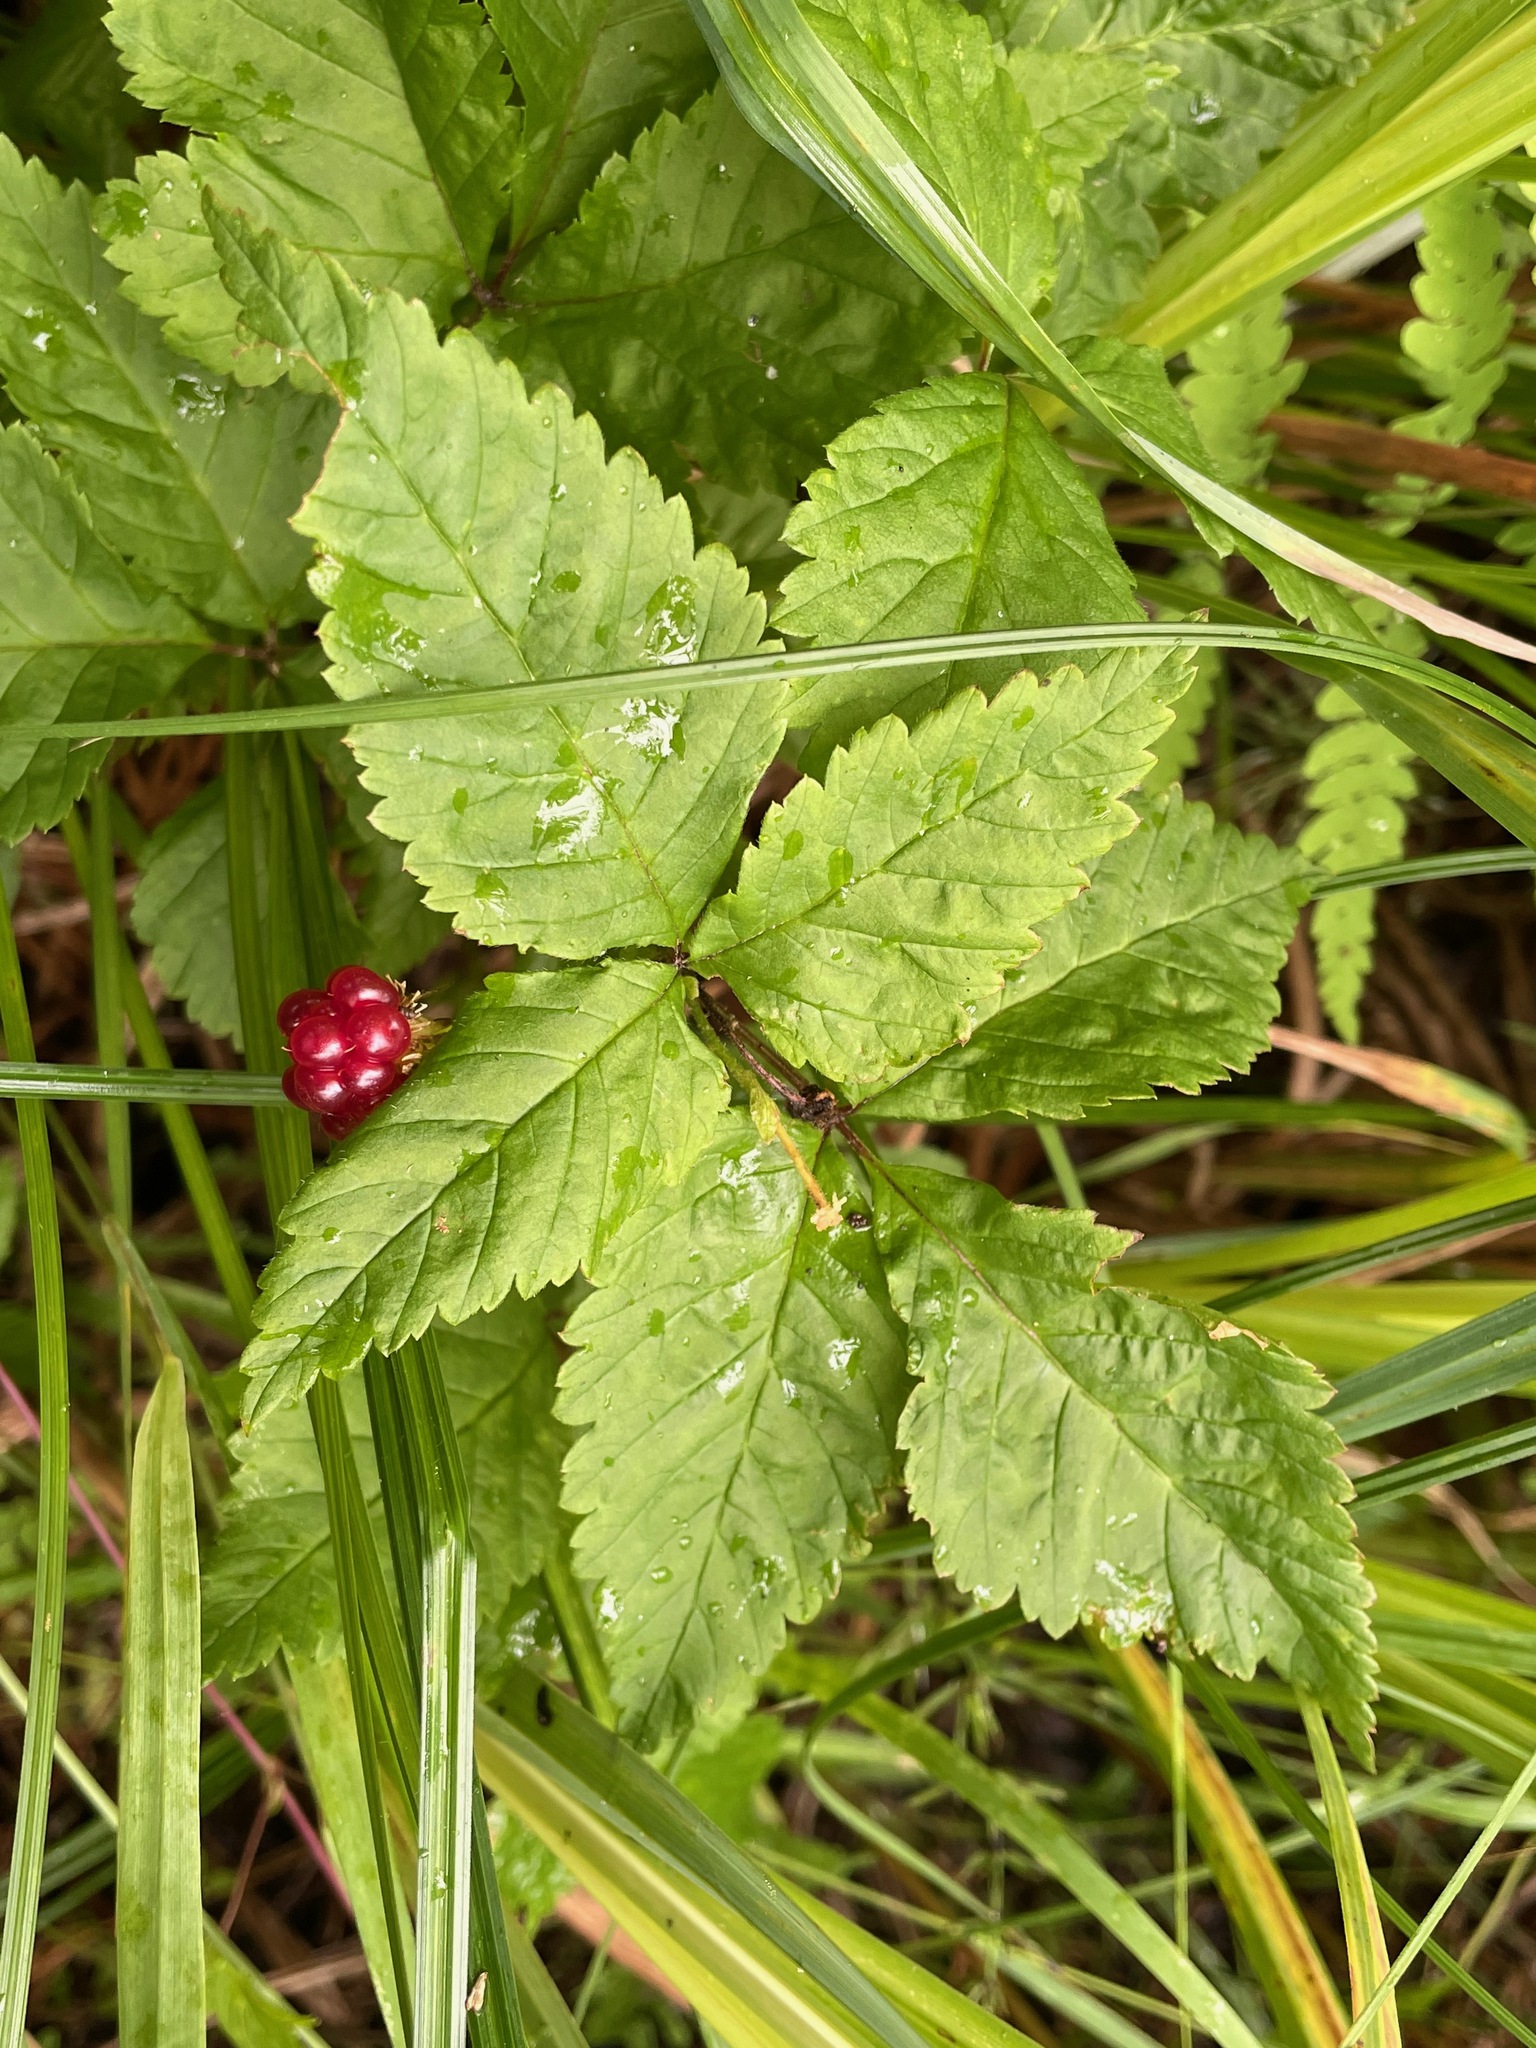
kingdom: Plantae
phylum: Tracheophyta
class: Magnoliopsida
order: Rosales
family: Rosaceae
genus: Rubus
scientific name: Rubus pubescens
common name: Dwarf raspberry
